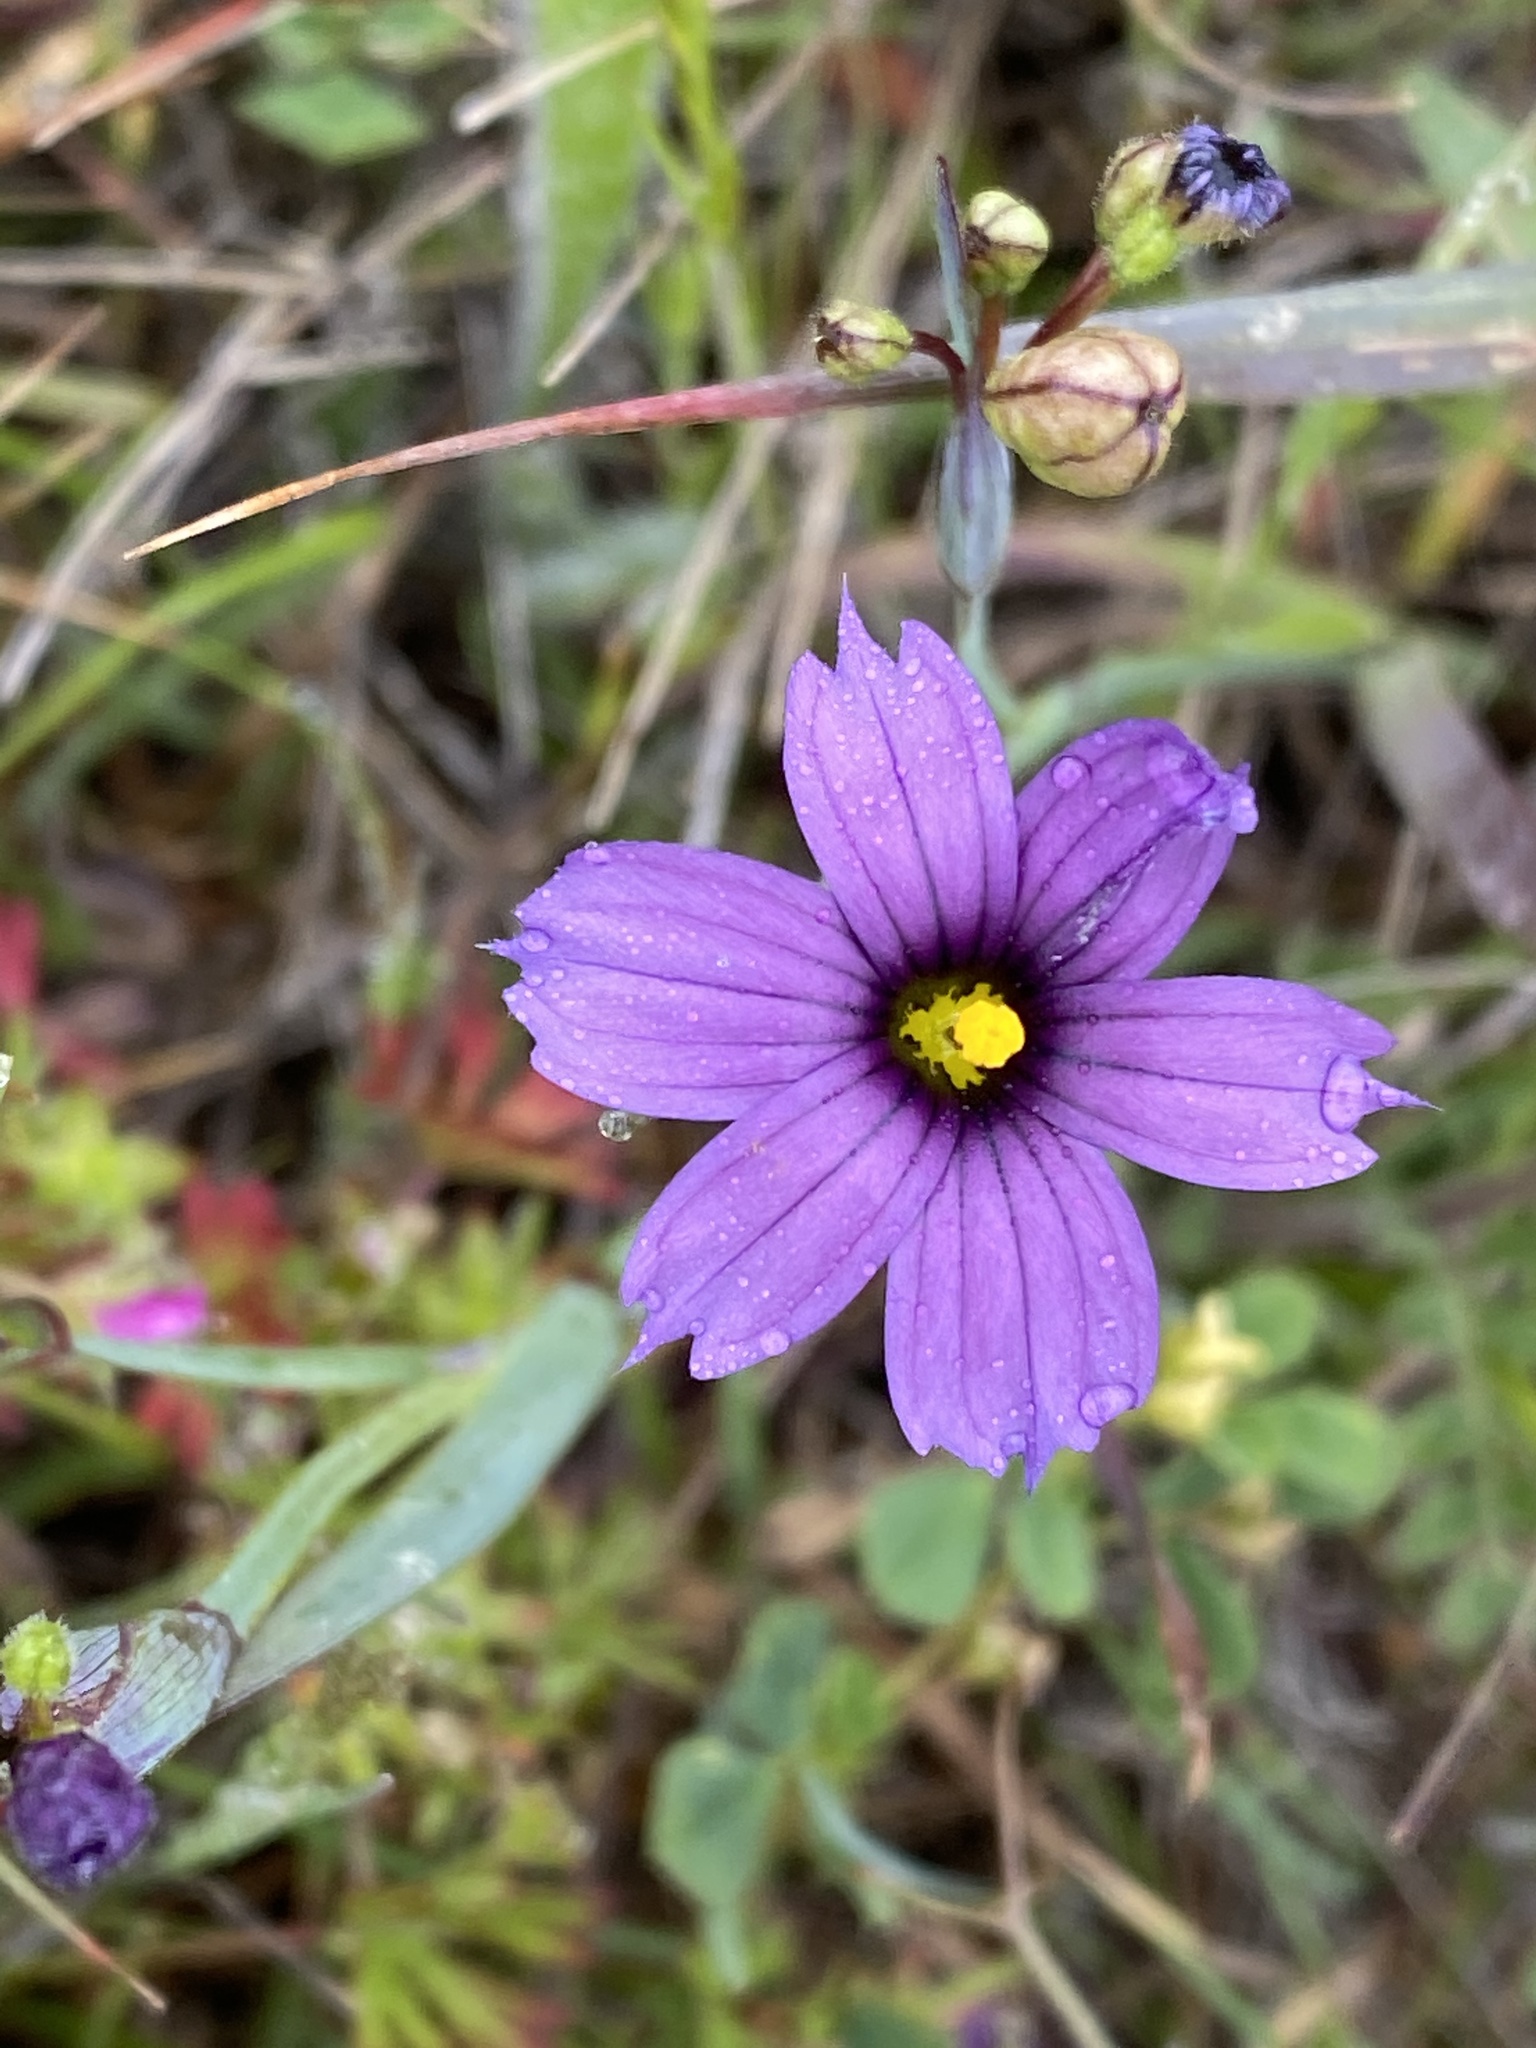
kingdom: Plantae
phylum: Tracheophyta
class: Liliopsida
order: Asparagales
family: Iridaceae
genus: Sisyrinchium
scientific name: Sisyrinchium bellum
